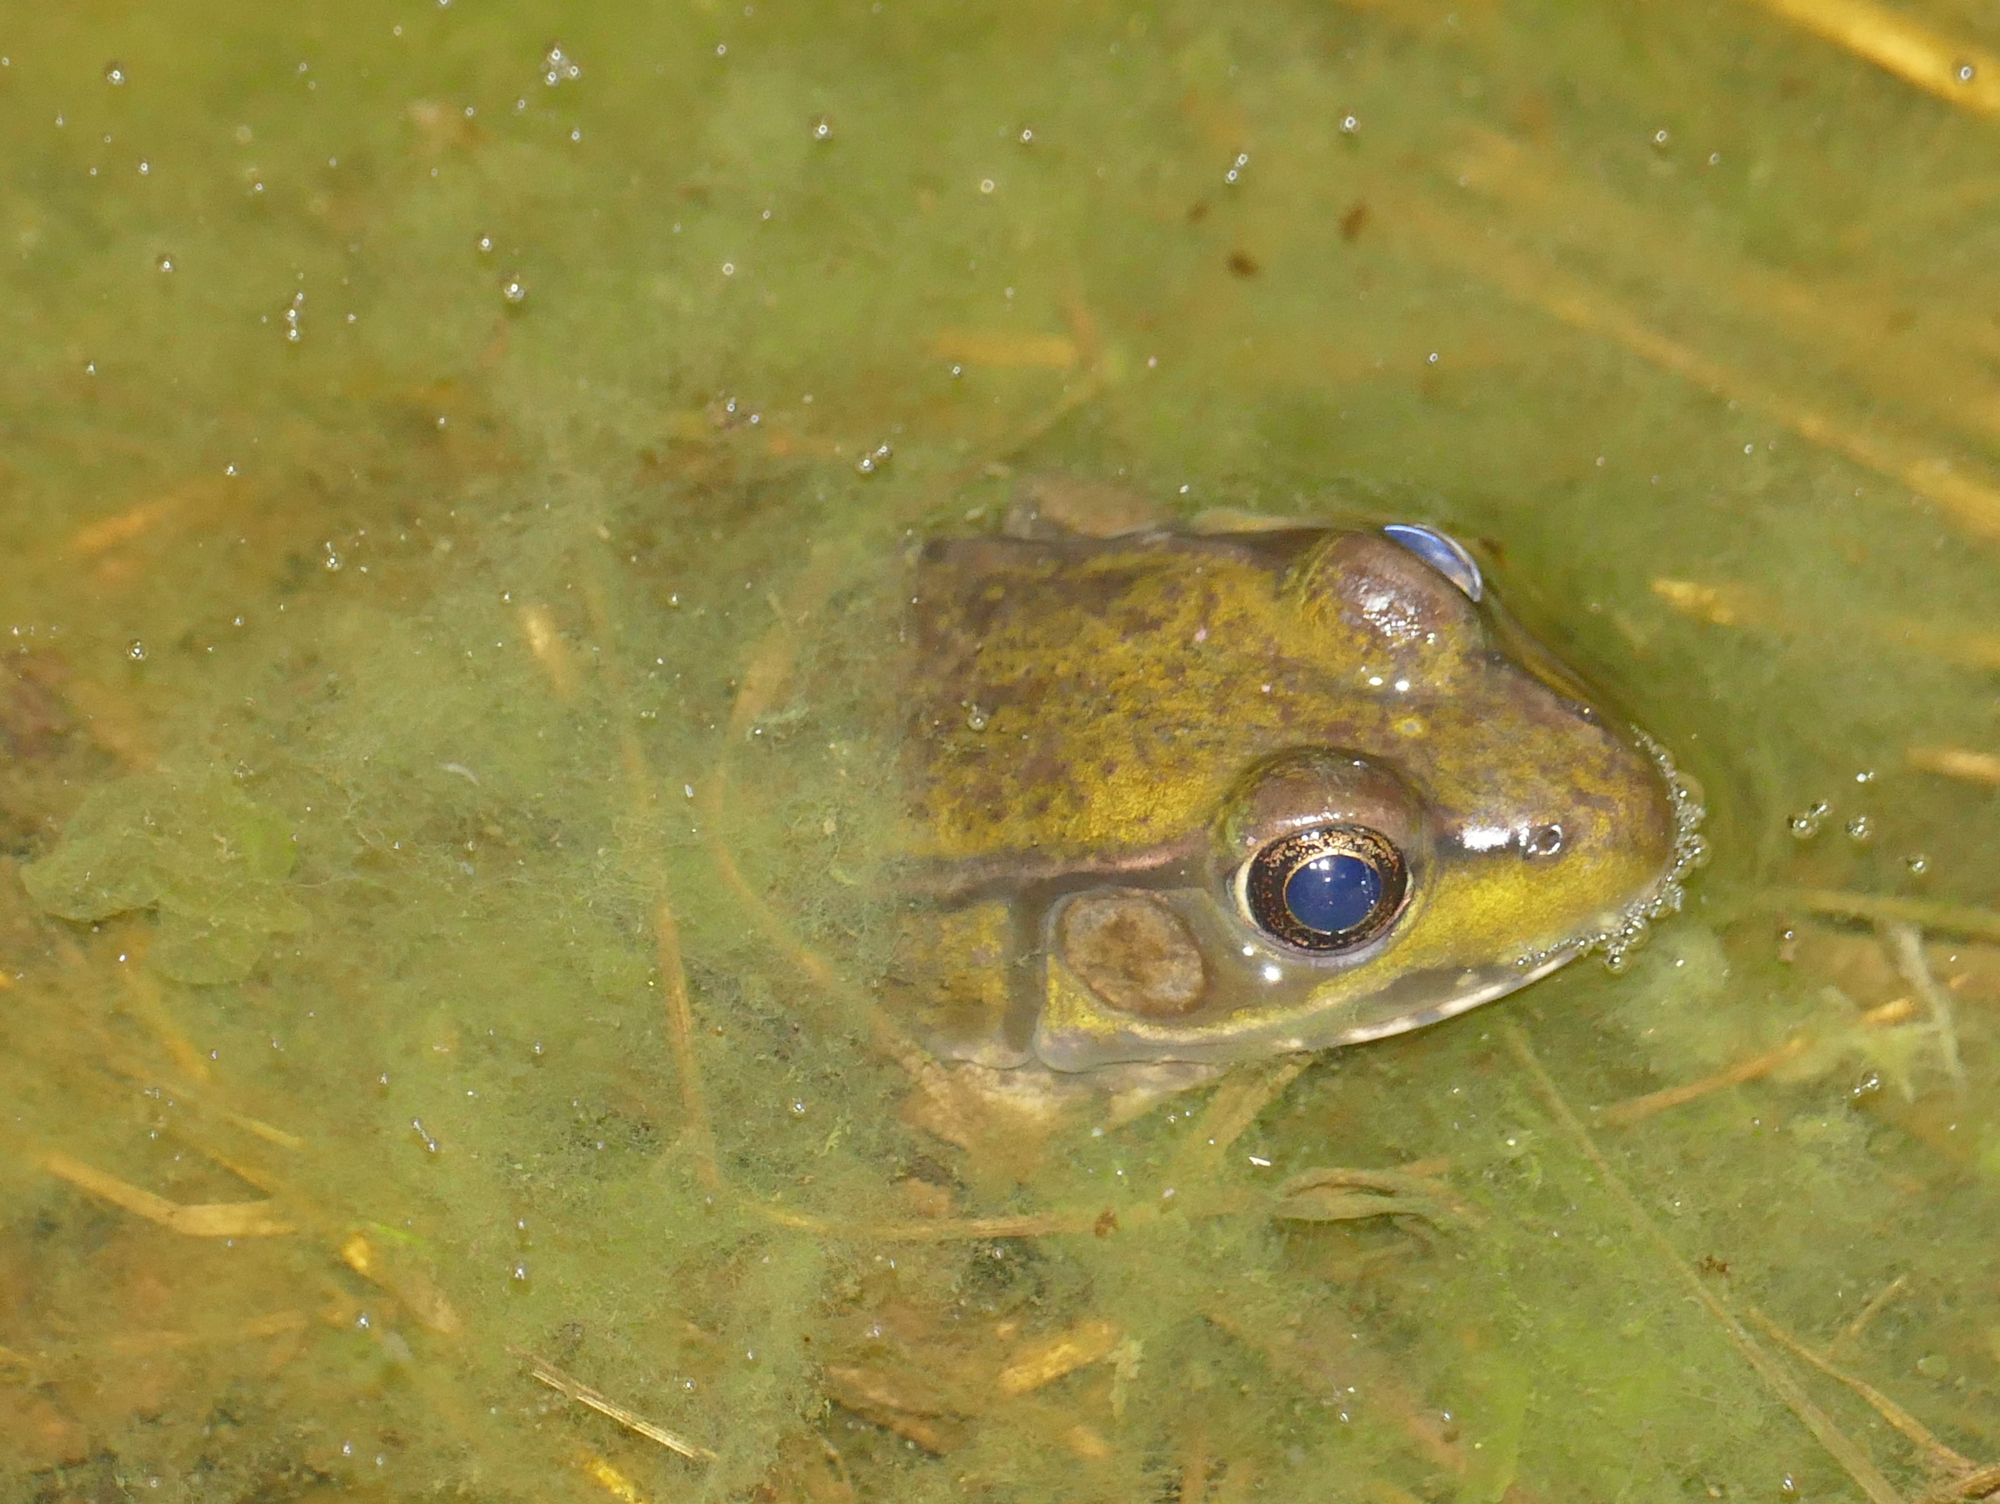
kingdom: Animalia
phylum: Chordata
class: Amphibia
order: Anura
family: Ranidae
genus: Lithobates
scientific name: Lithobates clamitans
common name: Green frog
